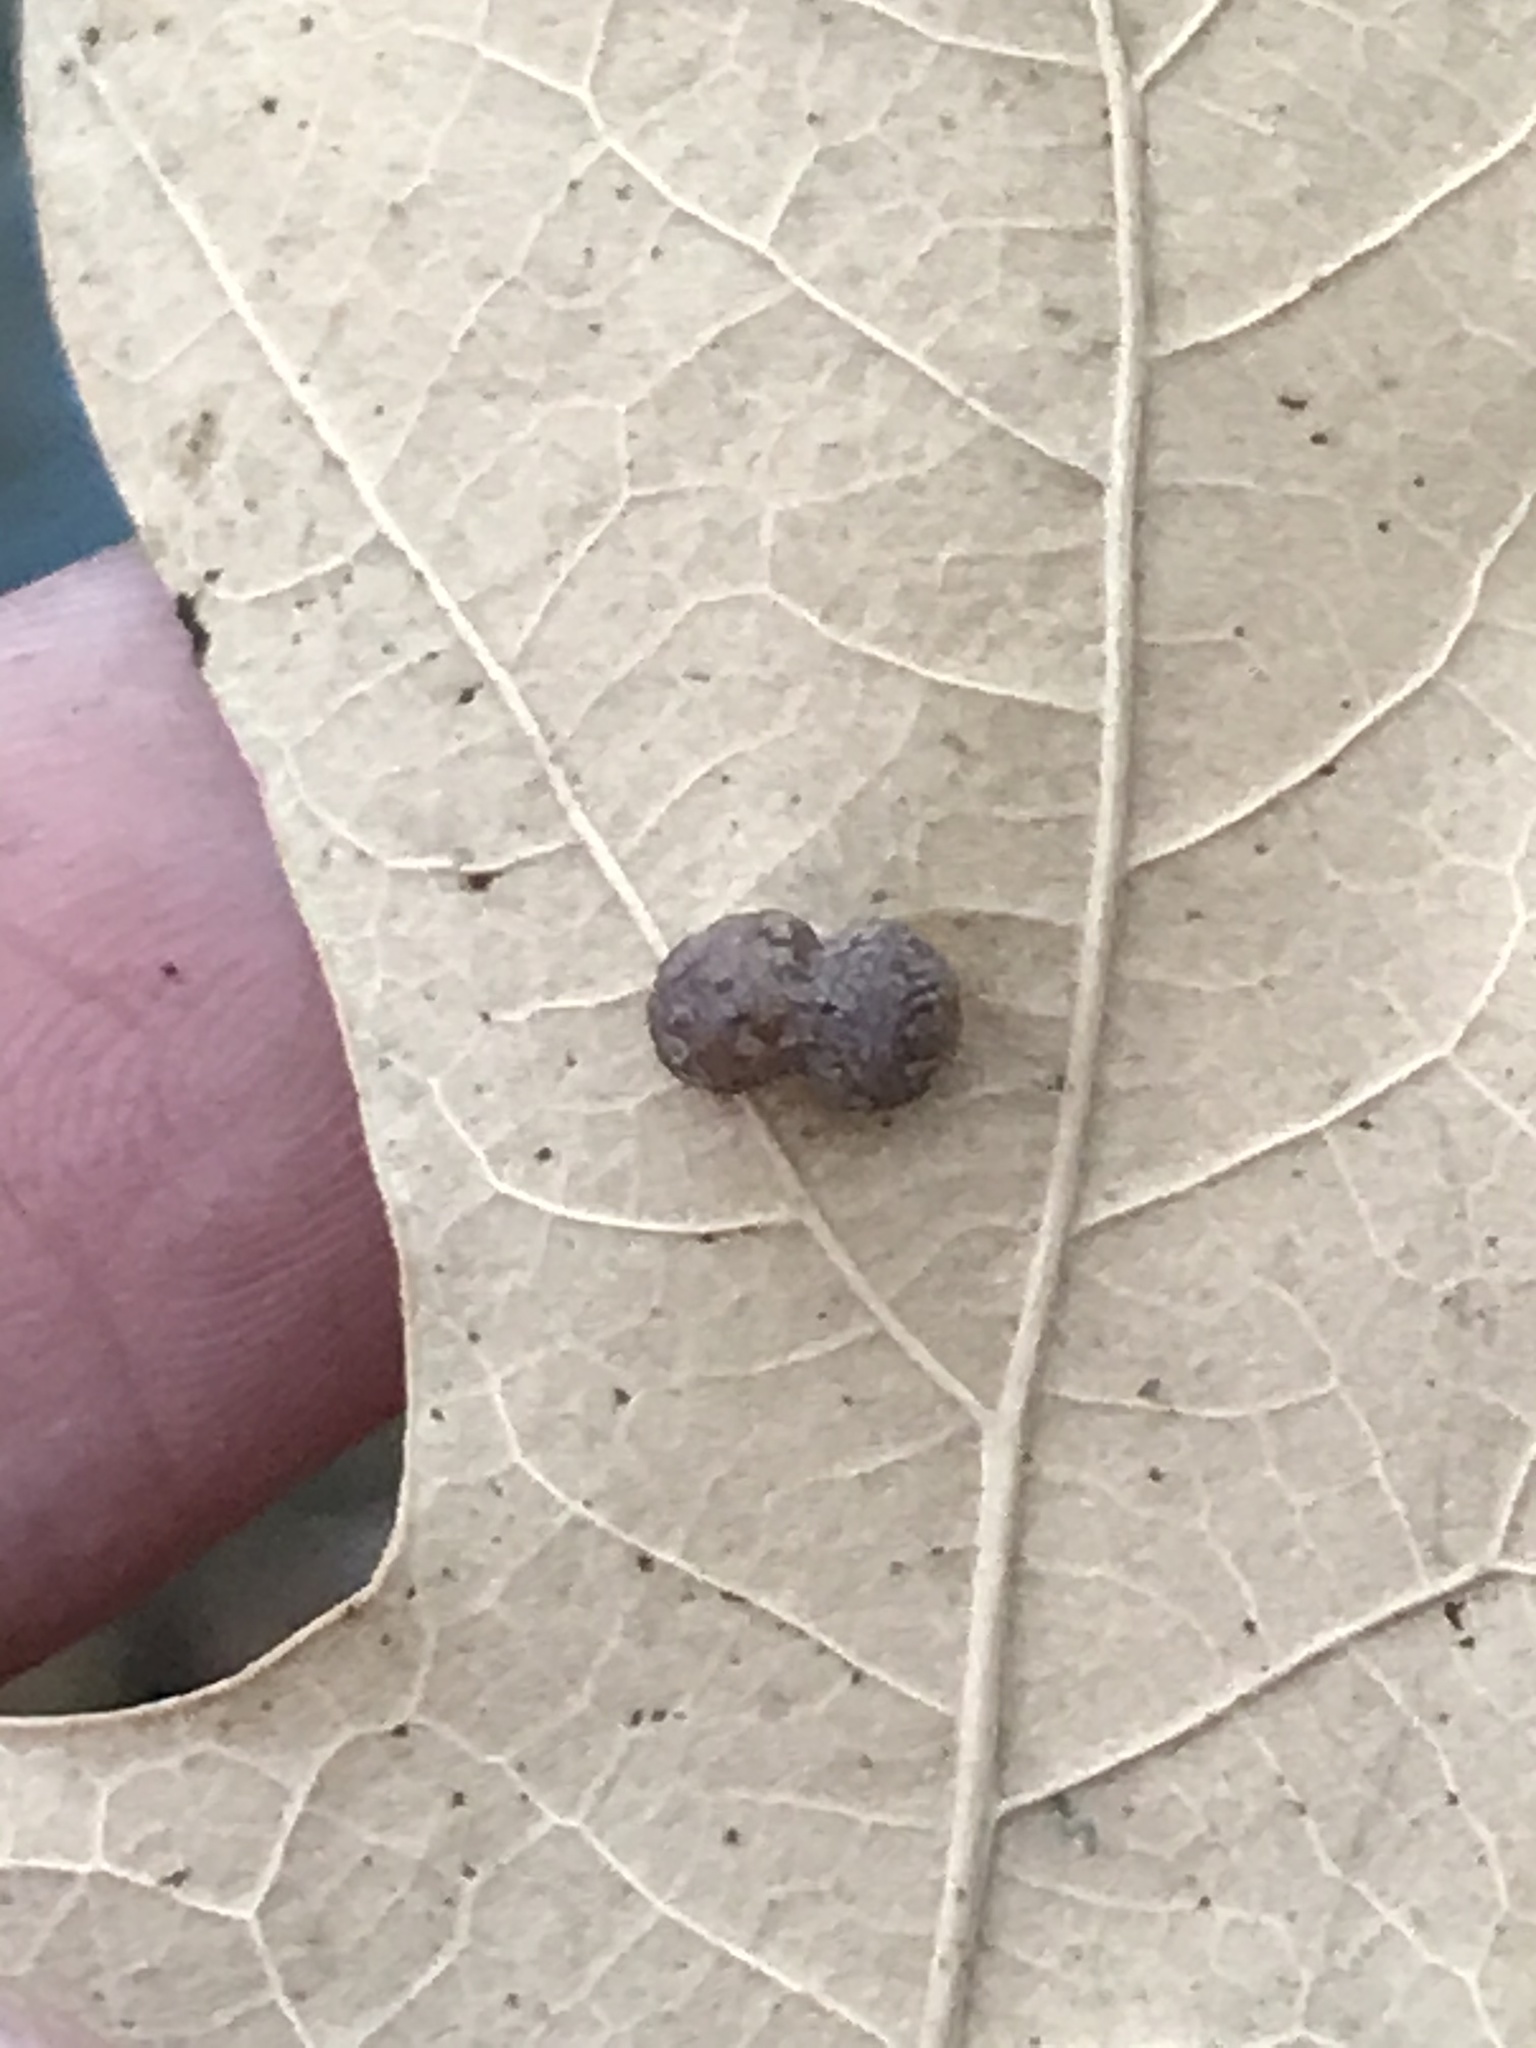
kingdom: Animalia
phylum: Arthropoda
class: Insecta
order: Diptera
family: Cecidomyiidae
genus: Polystepha
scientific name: Polystepha globosa
